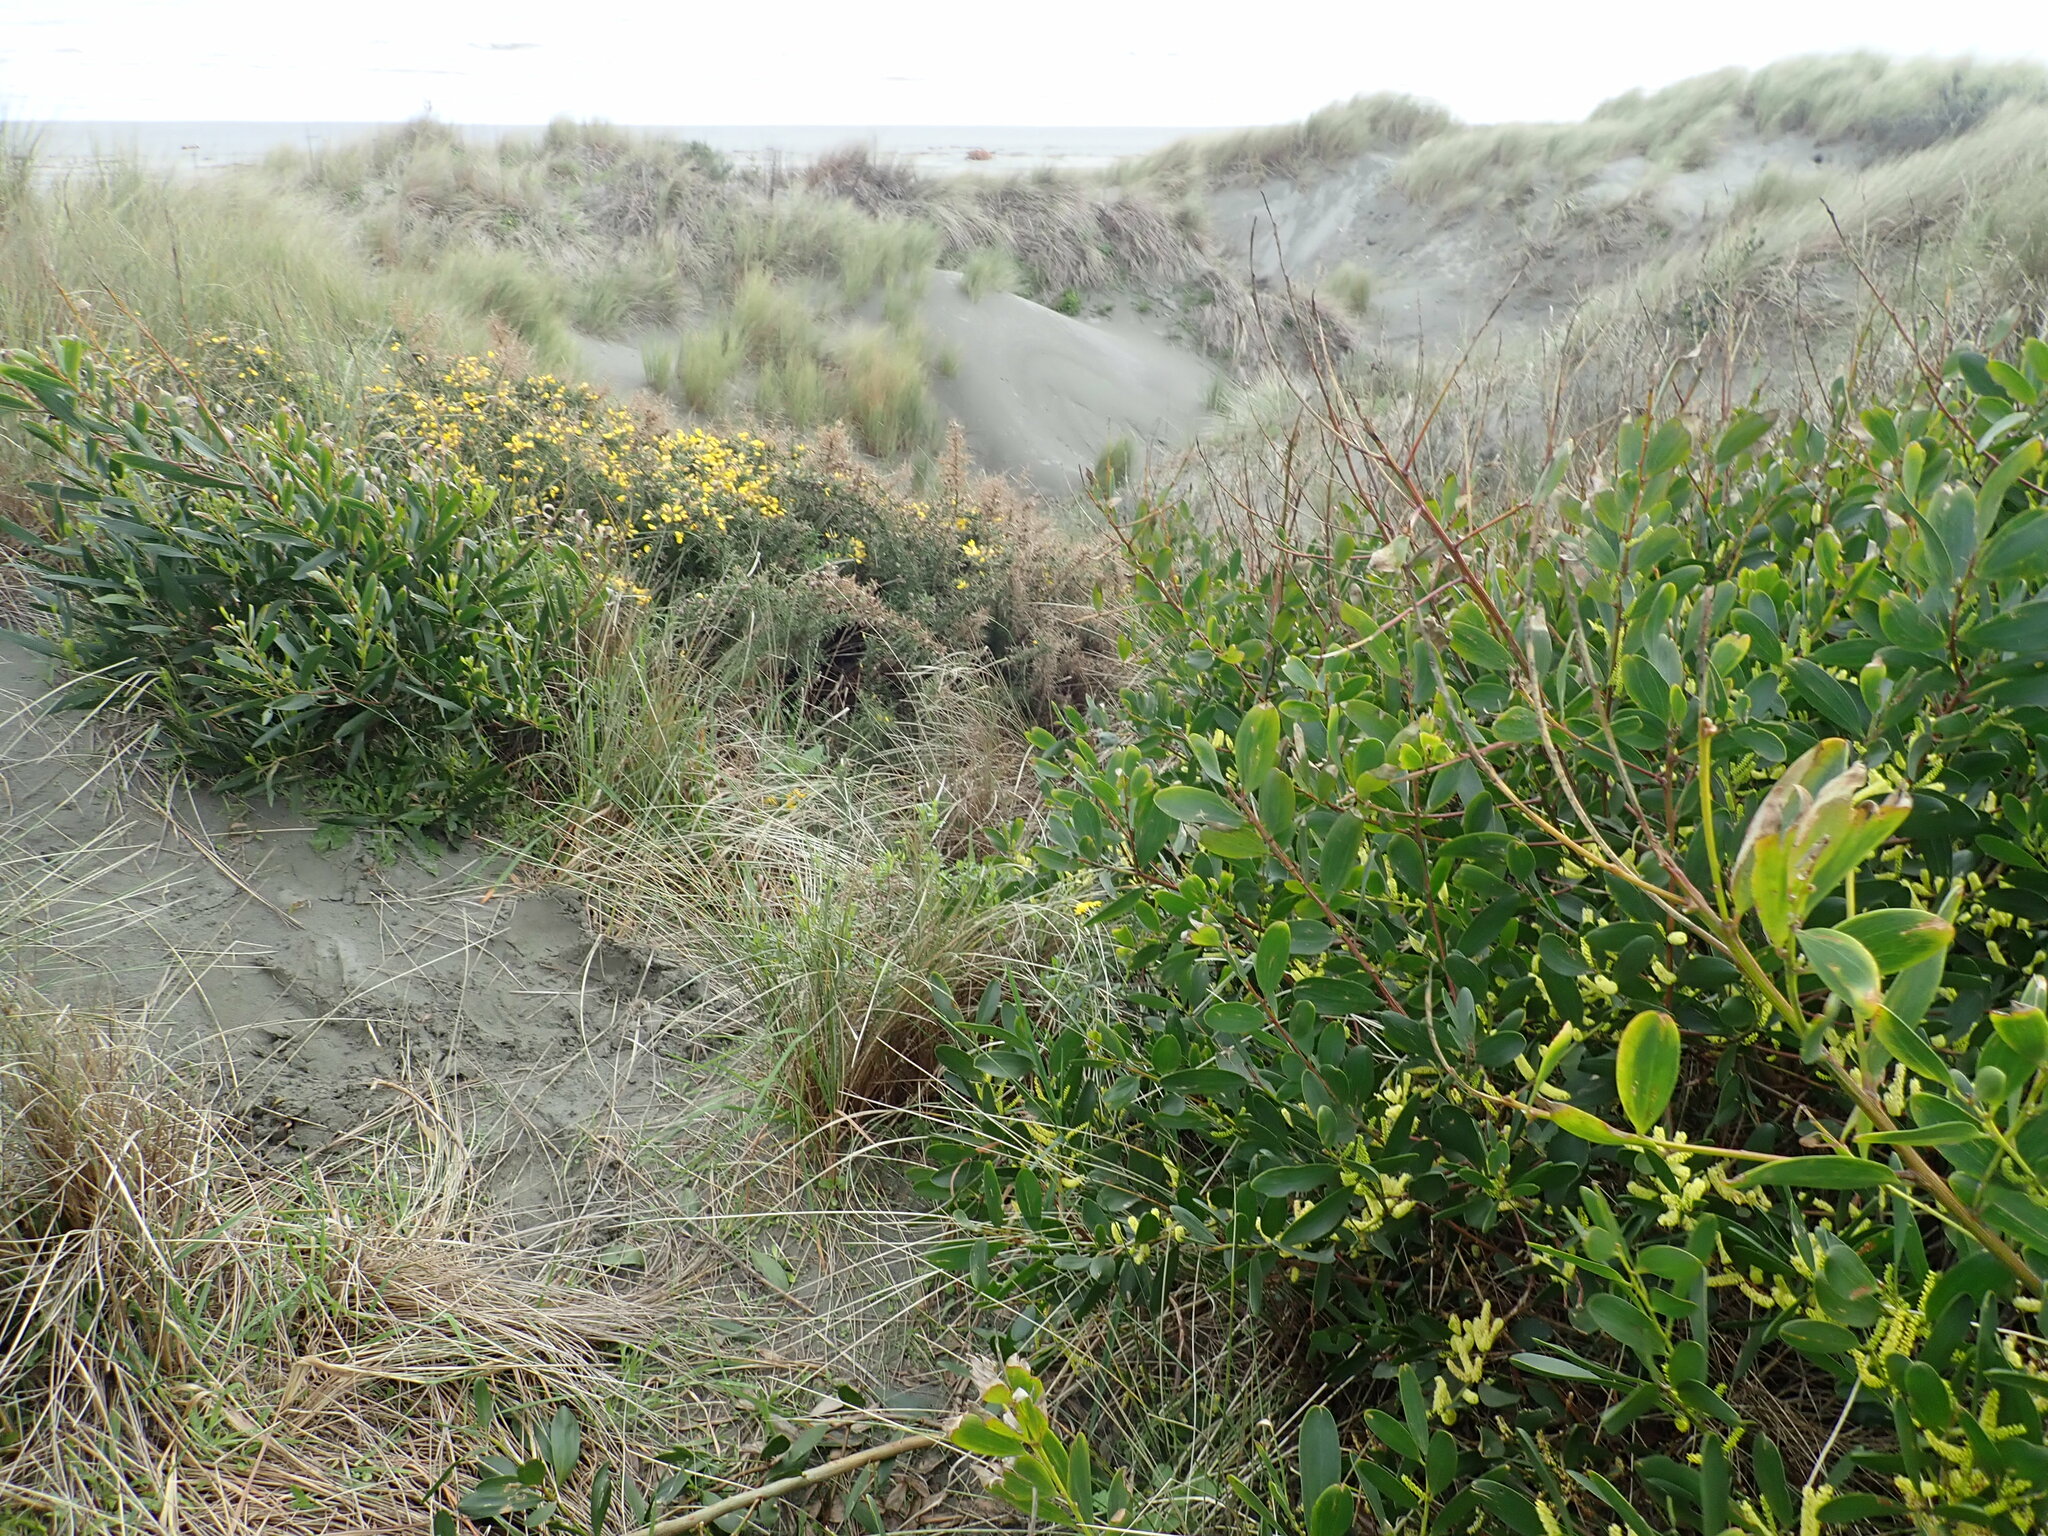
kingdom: Plantae
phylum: Tracheophyta
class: Magnoliopsida
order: Fabales
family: Fabaceae
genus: Ulex
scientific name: Ulex europaeus
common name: Common gorse
